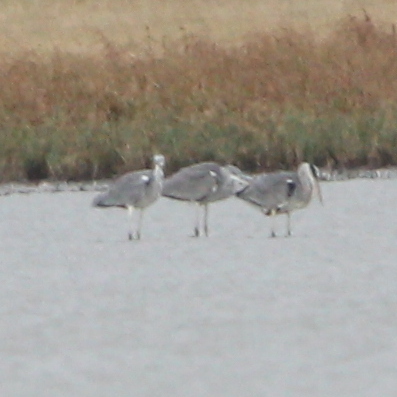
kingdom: Animalia
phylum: Chordata
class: Aves
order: Pelecaniformes
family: Ardeidae
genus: Ardea
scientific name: Ardea cinerea
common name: Grey heron
